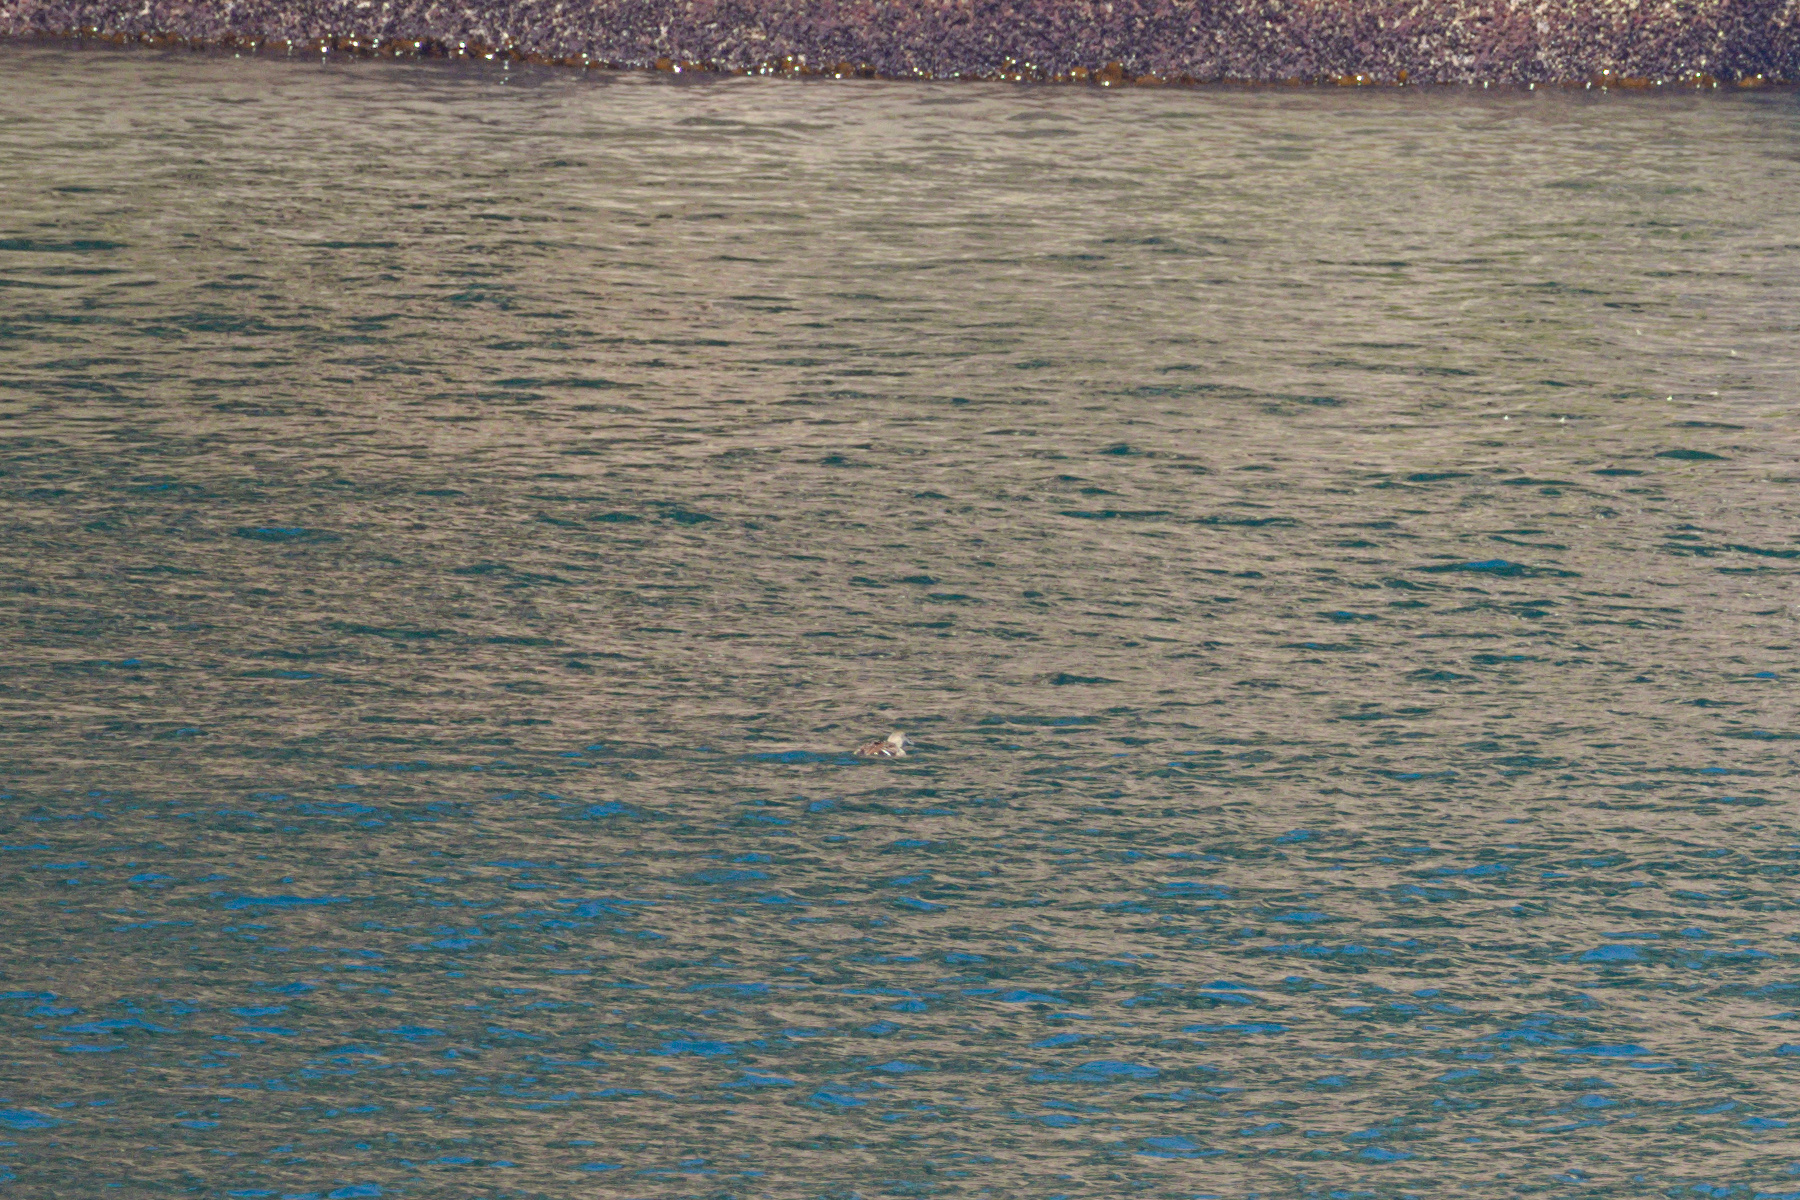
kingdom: Animalia
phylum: Chordata
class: Aves
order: Anseriformes
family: Anatidae
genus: Somateria
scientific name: Somateria mollissima
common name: Common eider
